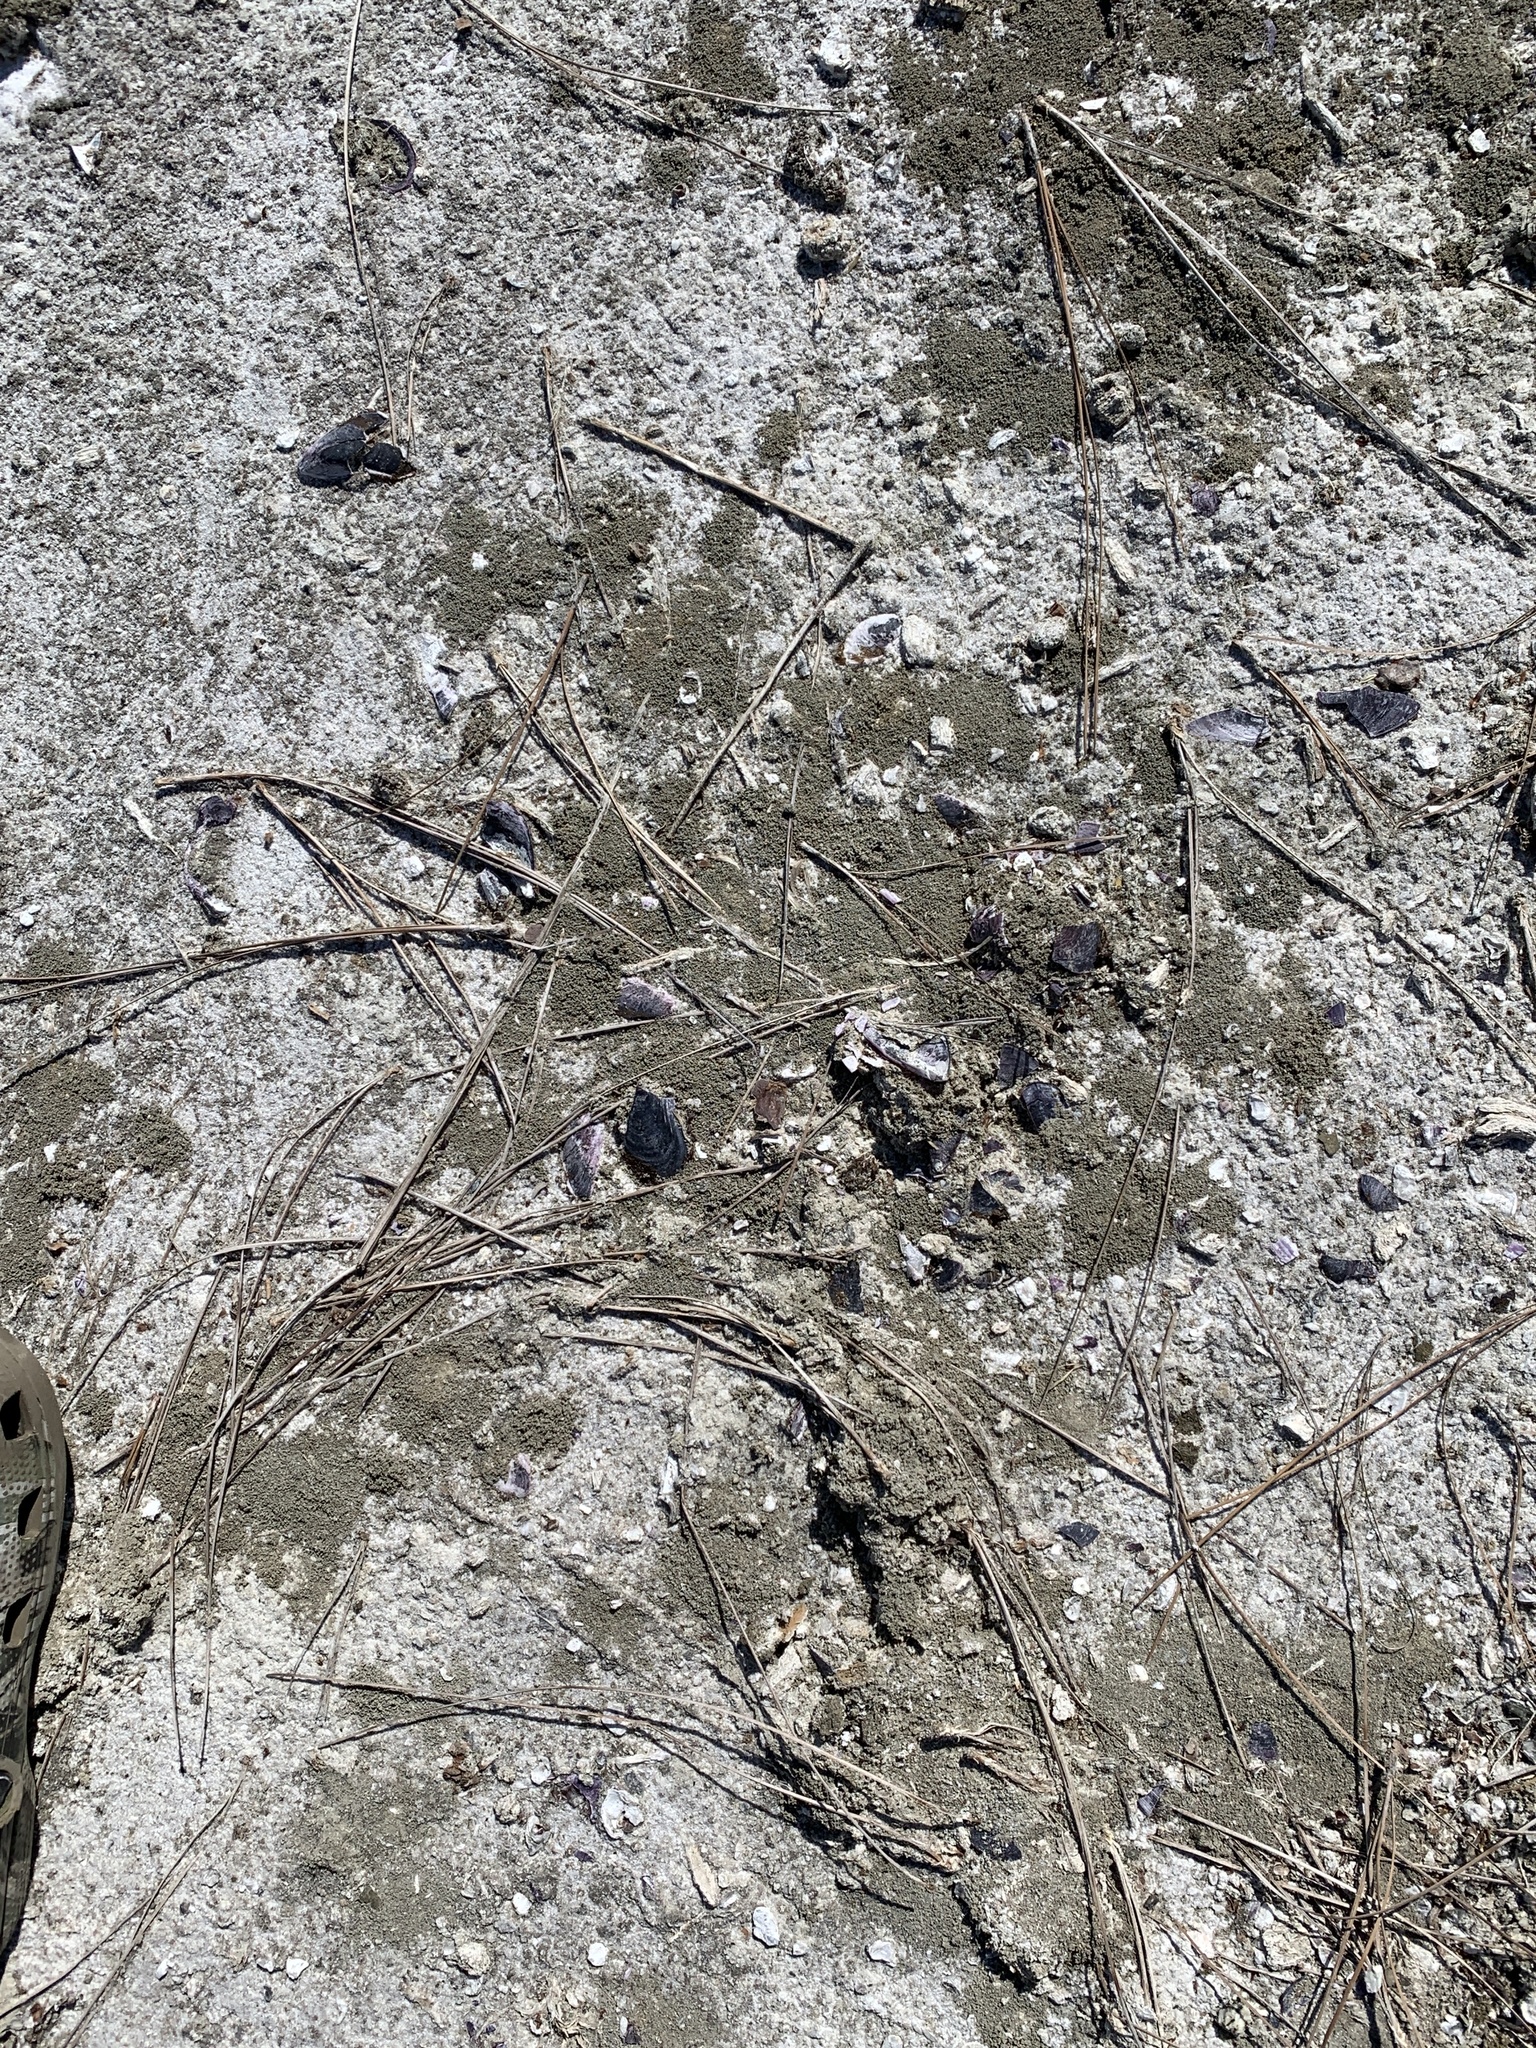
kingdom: Animalia
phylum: Mollusca
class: Bivalvia
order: Mytilida
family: Mytilidae
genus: Mytilus
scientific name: Mytilus
